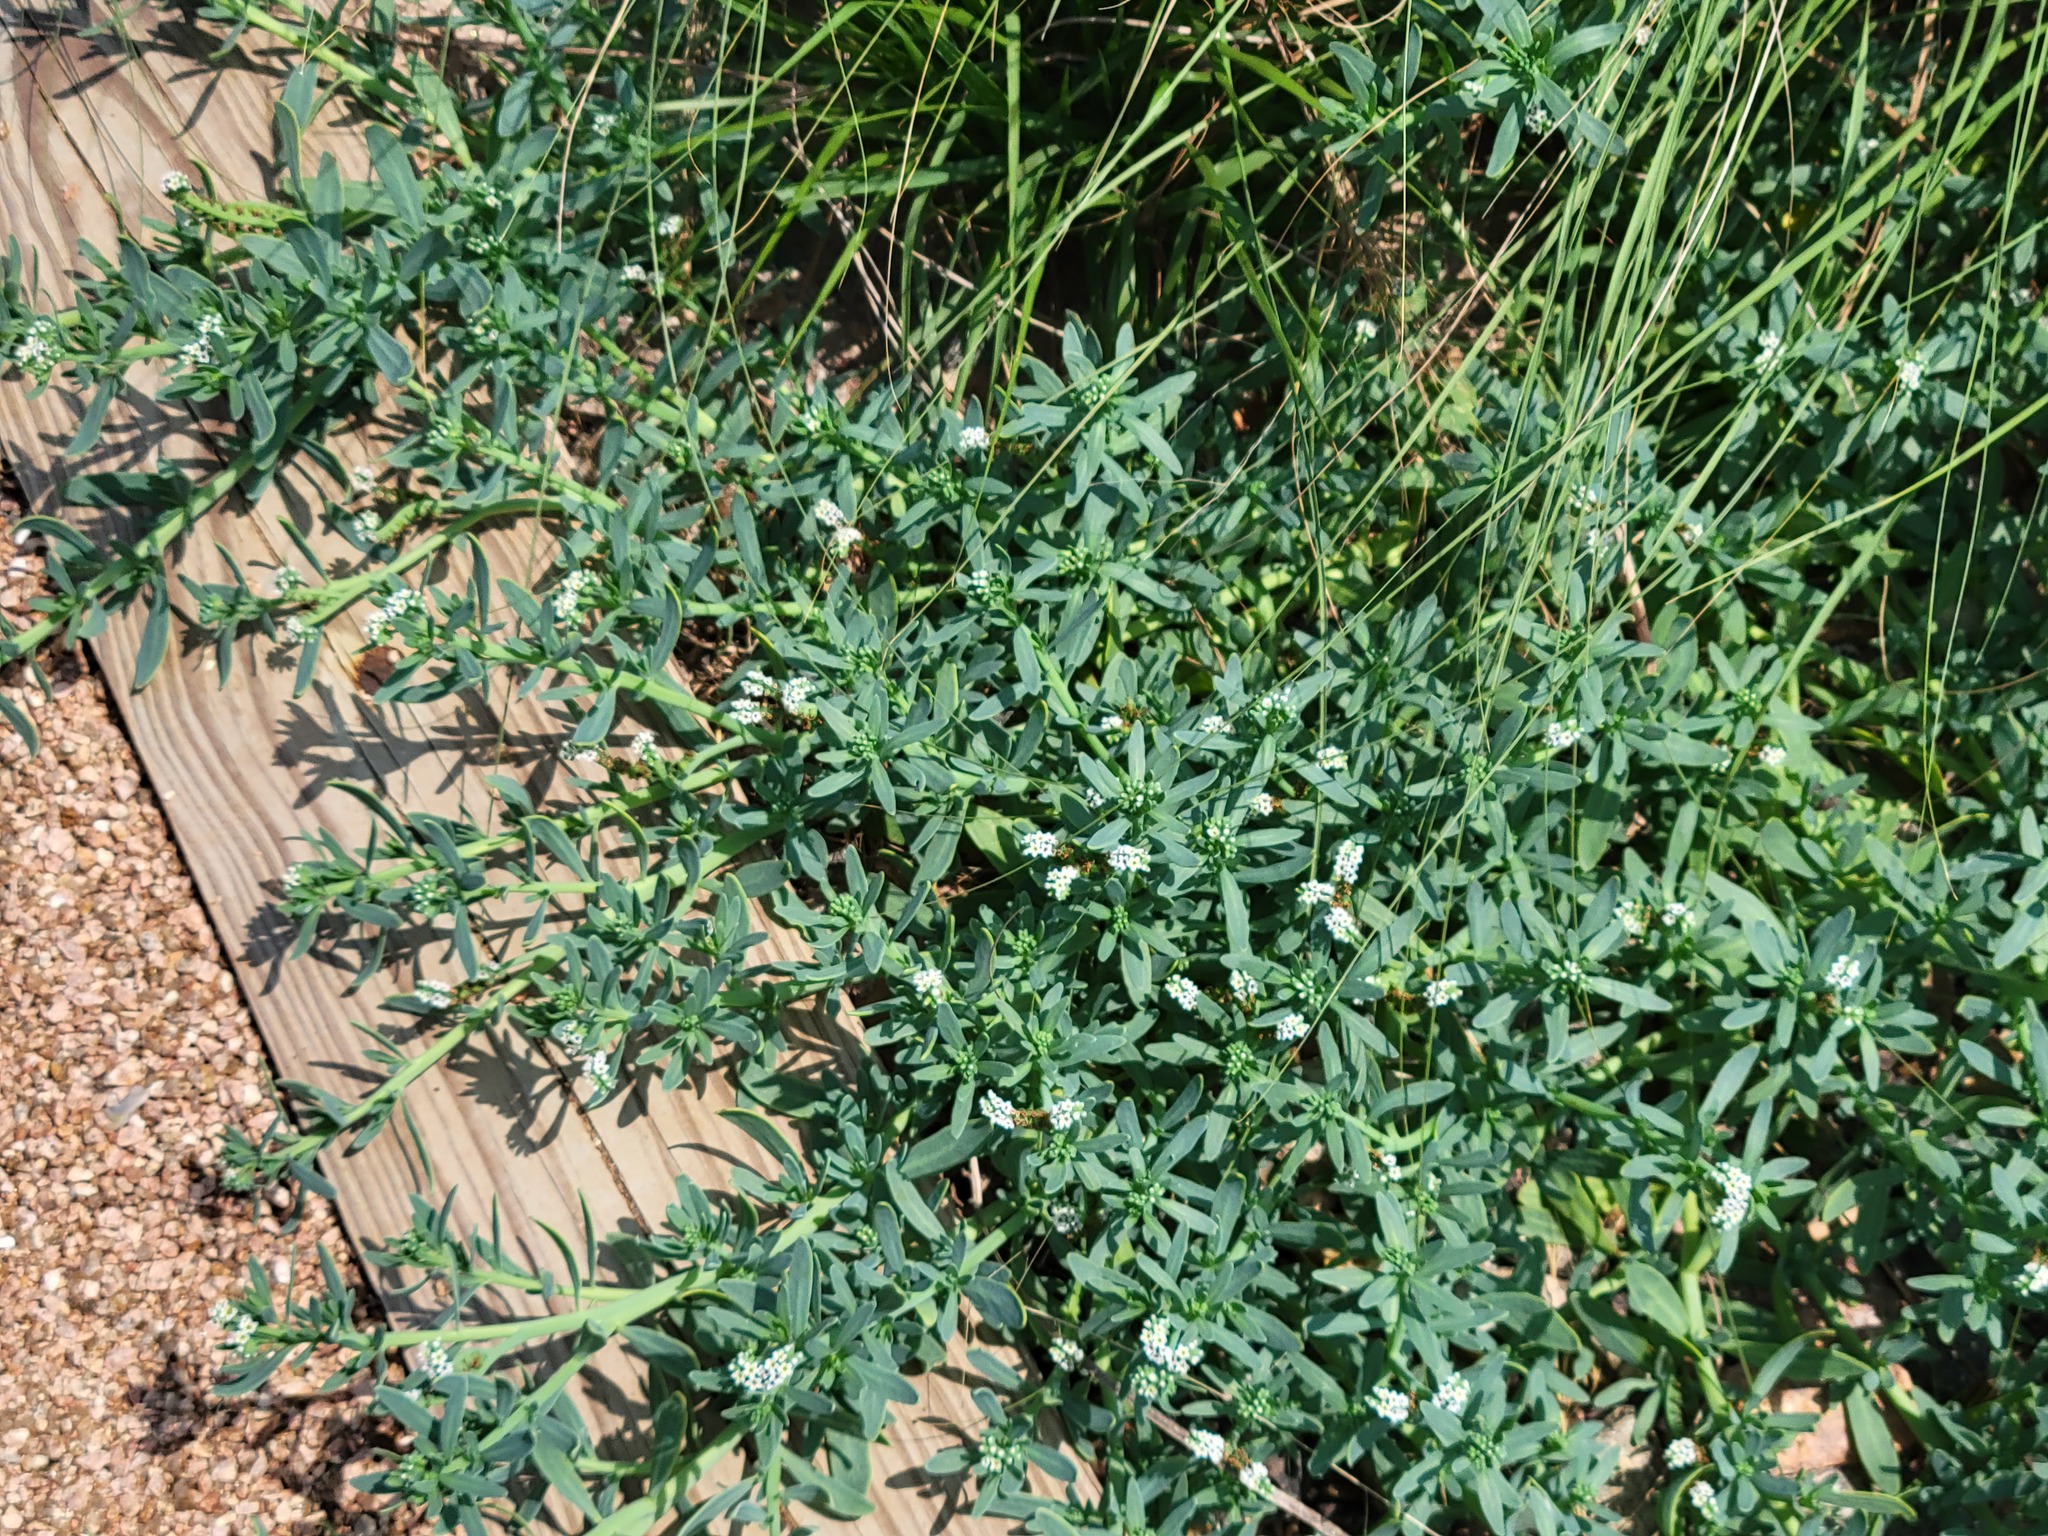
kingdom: Plantae
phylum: Tracheophyta
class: Magnoliopsida
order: Boraginales
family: Heliotropiaceae
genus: Heliotropium
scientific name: Heliotropium curassavicum
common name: Seaside heliotrope
